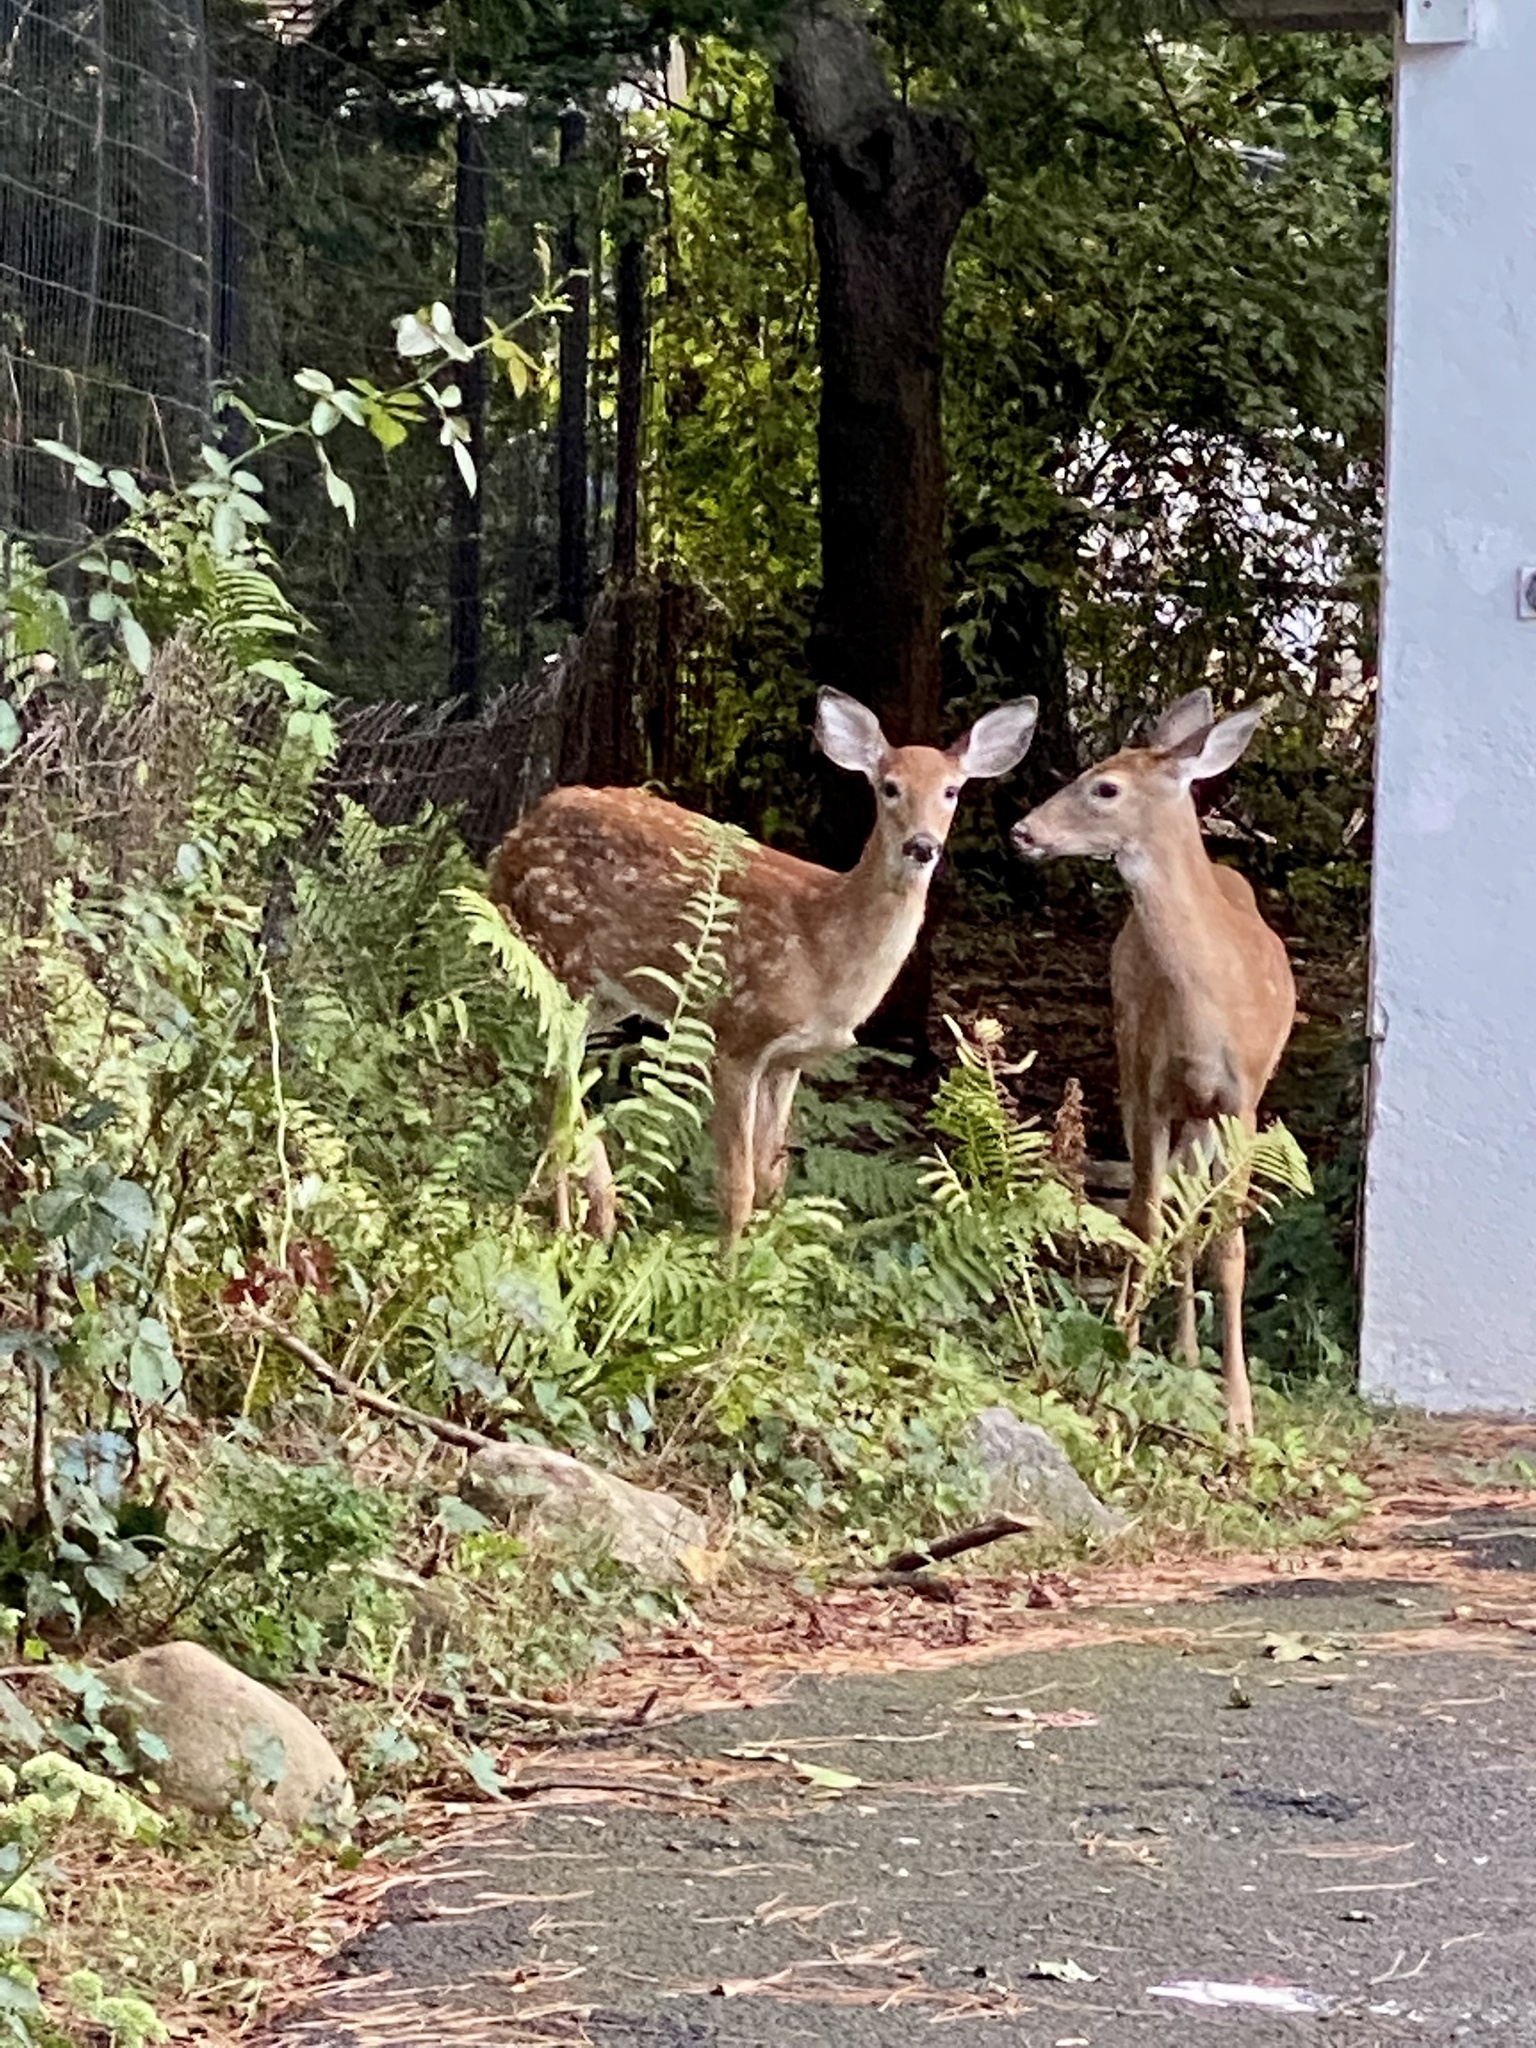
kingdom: Animalia
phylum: Chordata
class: Mammalia
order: Artiodactyla
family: Cervidae
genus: Odocoileus
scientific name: Odocoileus virginianus
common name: White-tailed deer
